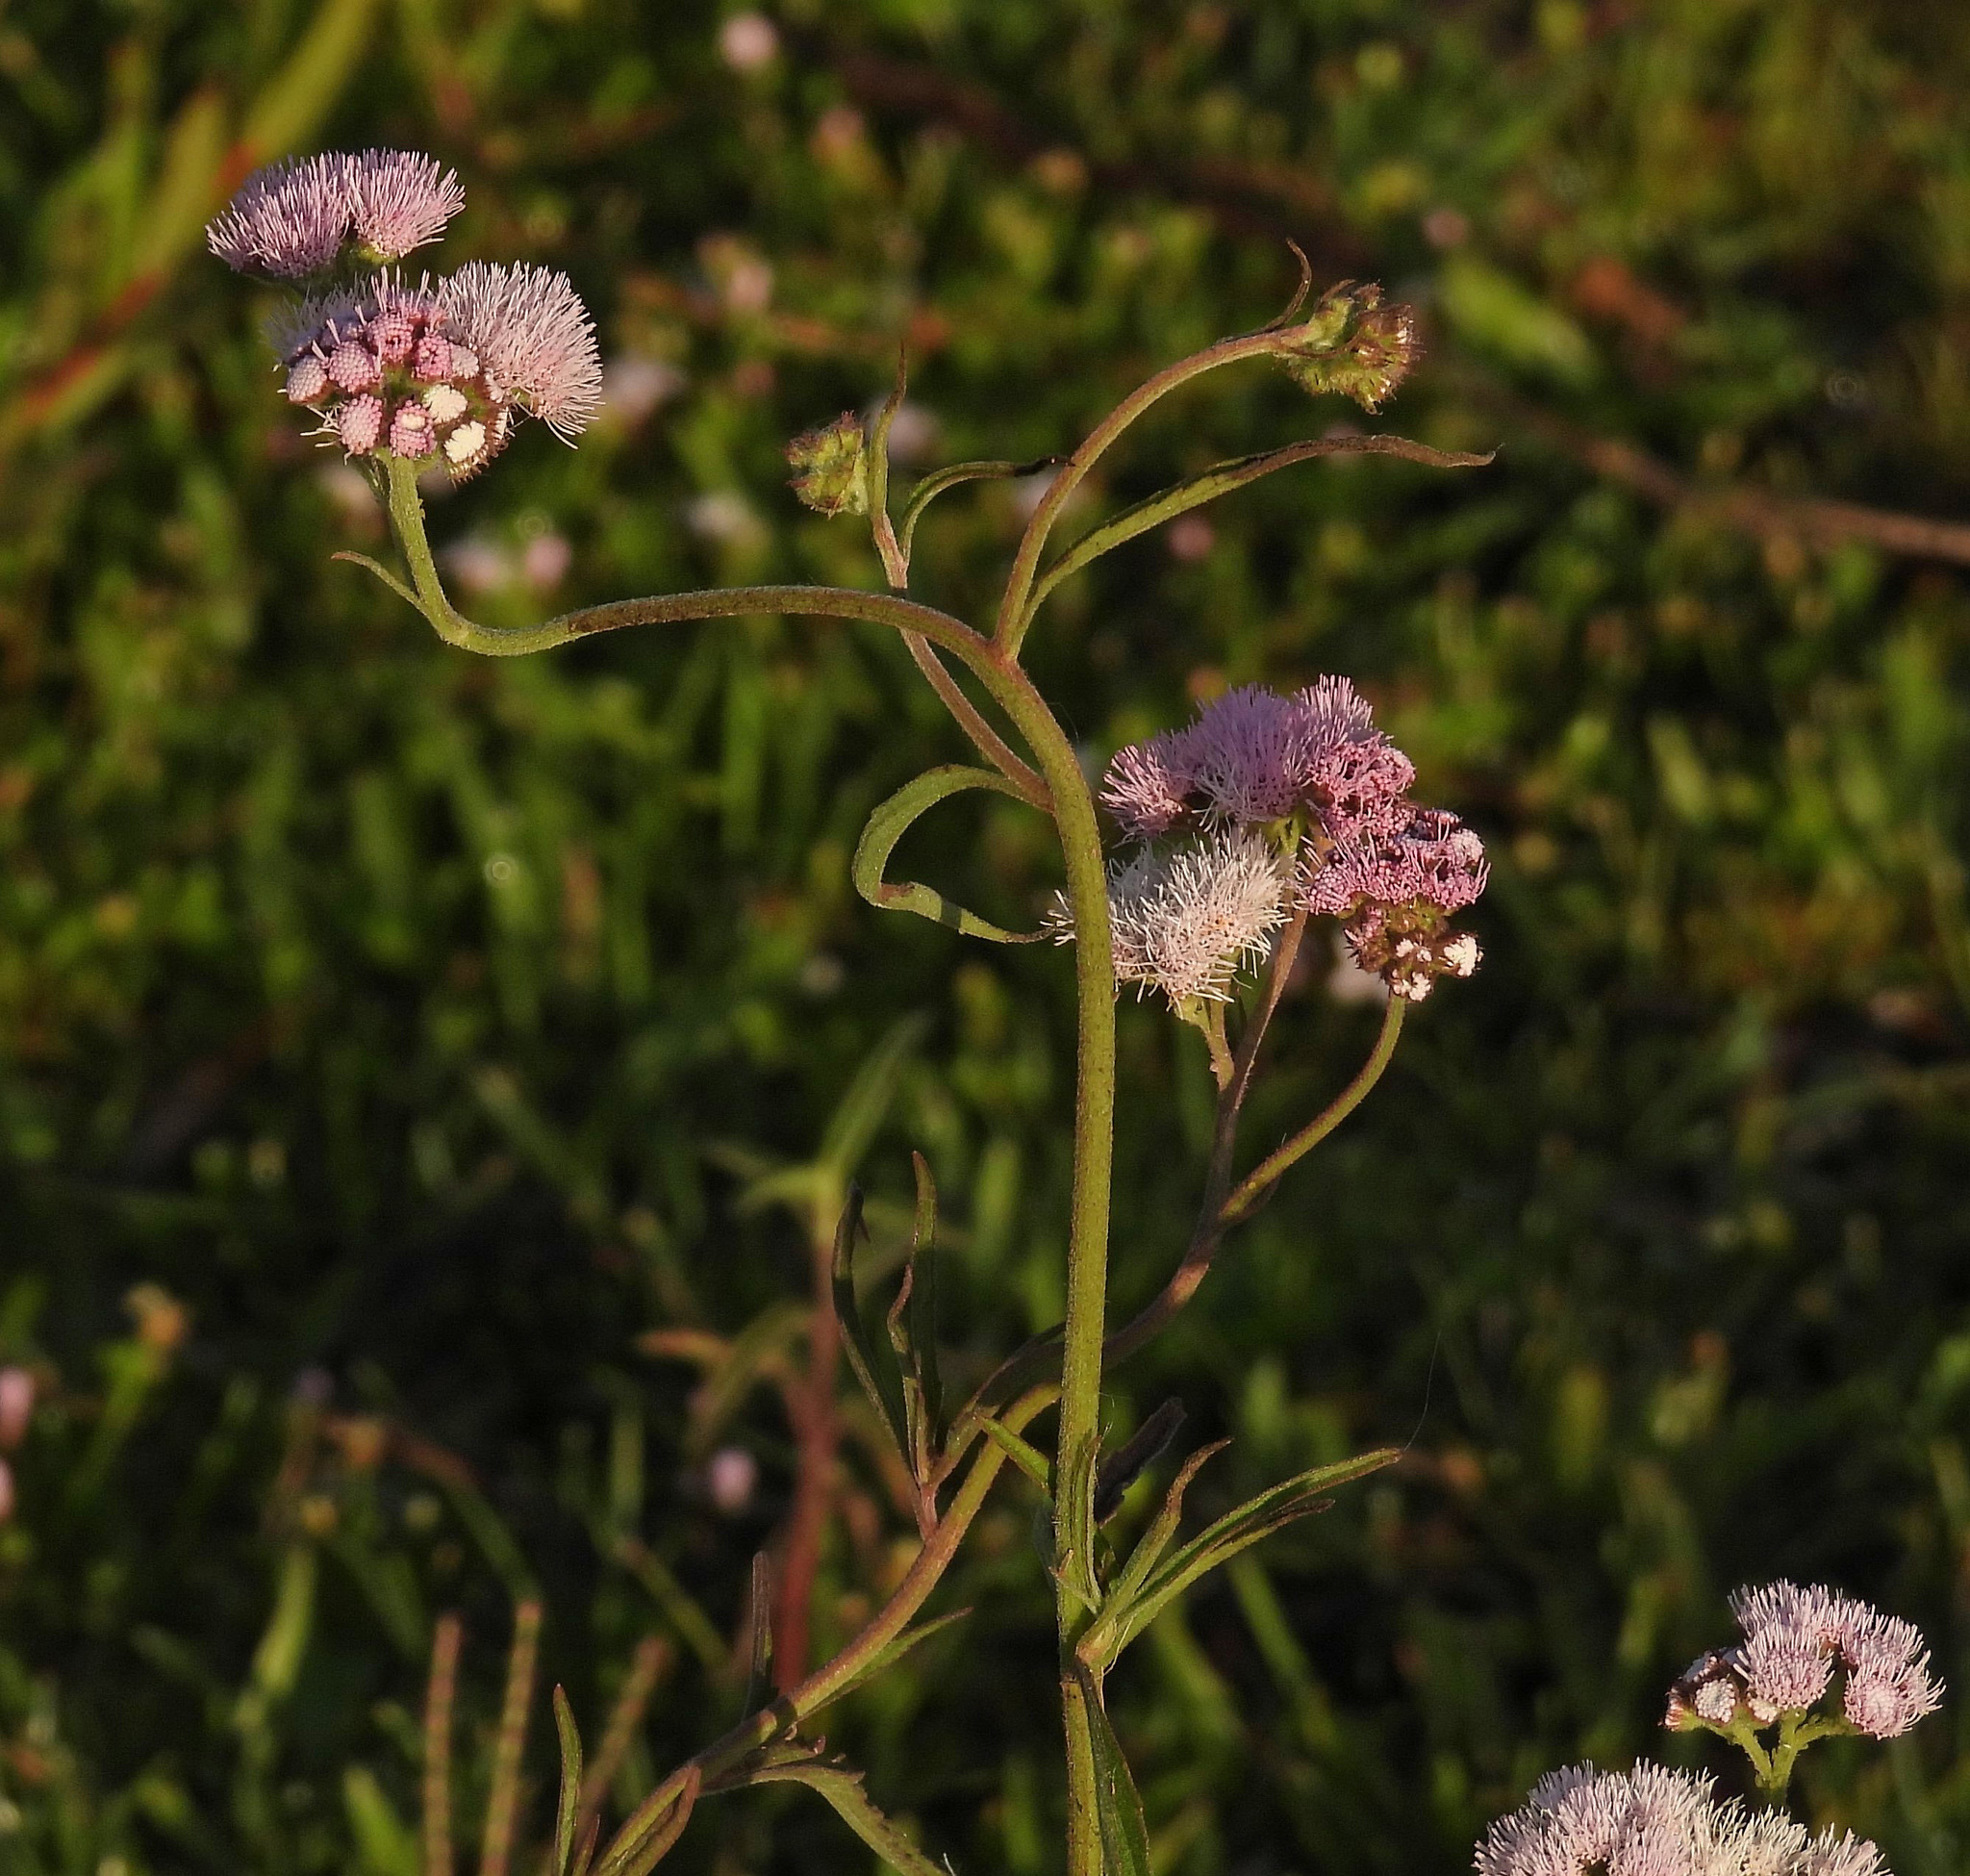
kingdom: Plantae
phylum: Tracheophyta
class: Magnoliopsida
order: Asterales
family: Asteraceae
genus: Barrosoa
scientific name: Barrosoa candolleana
